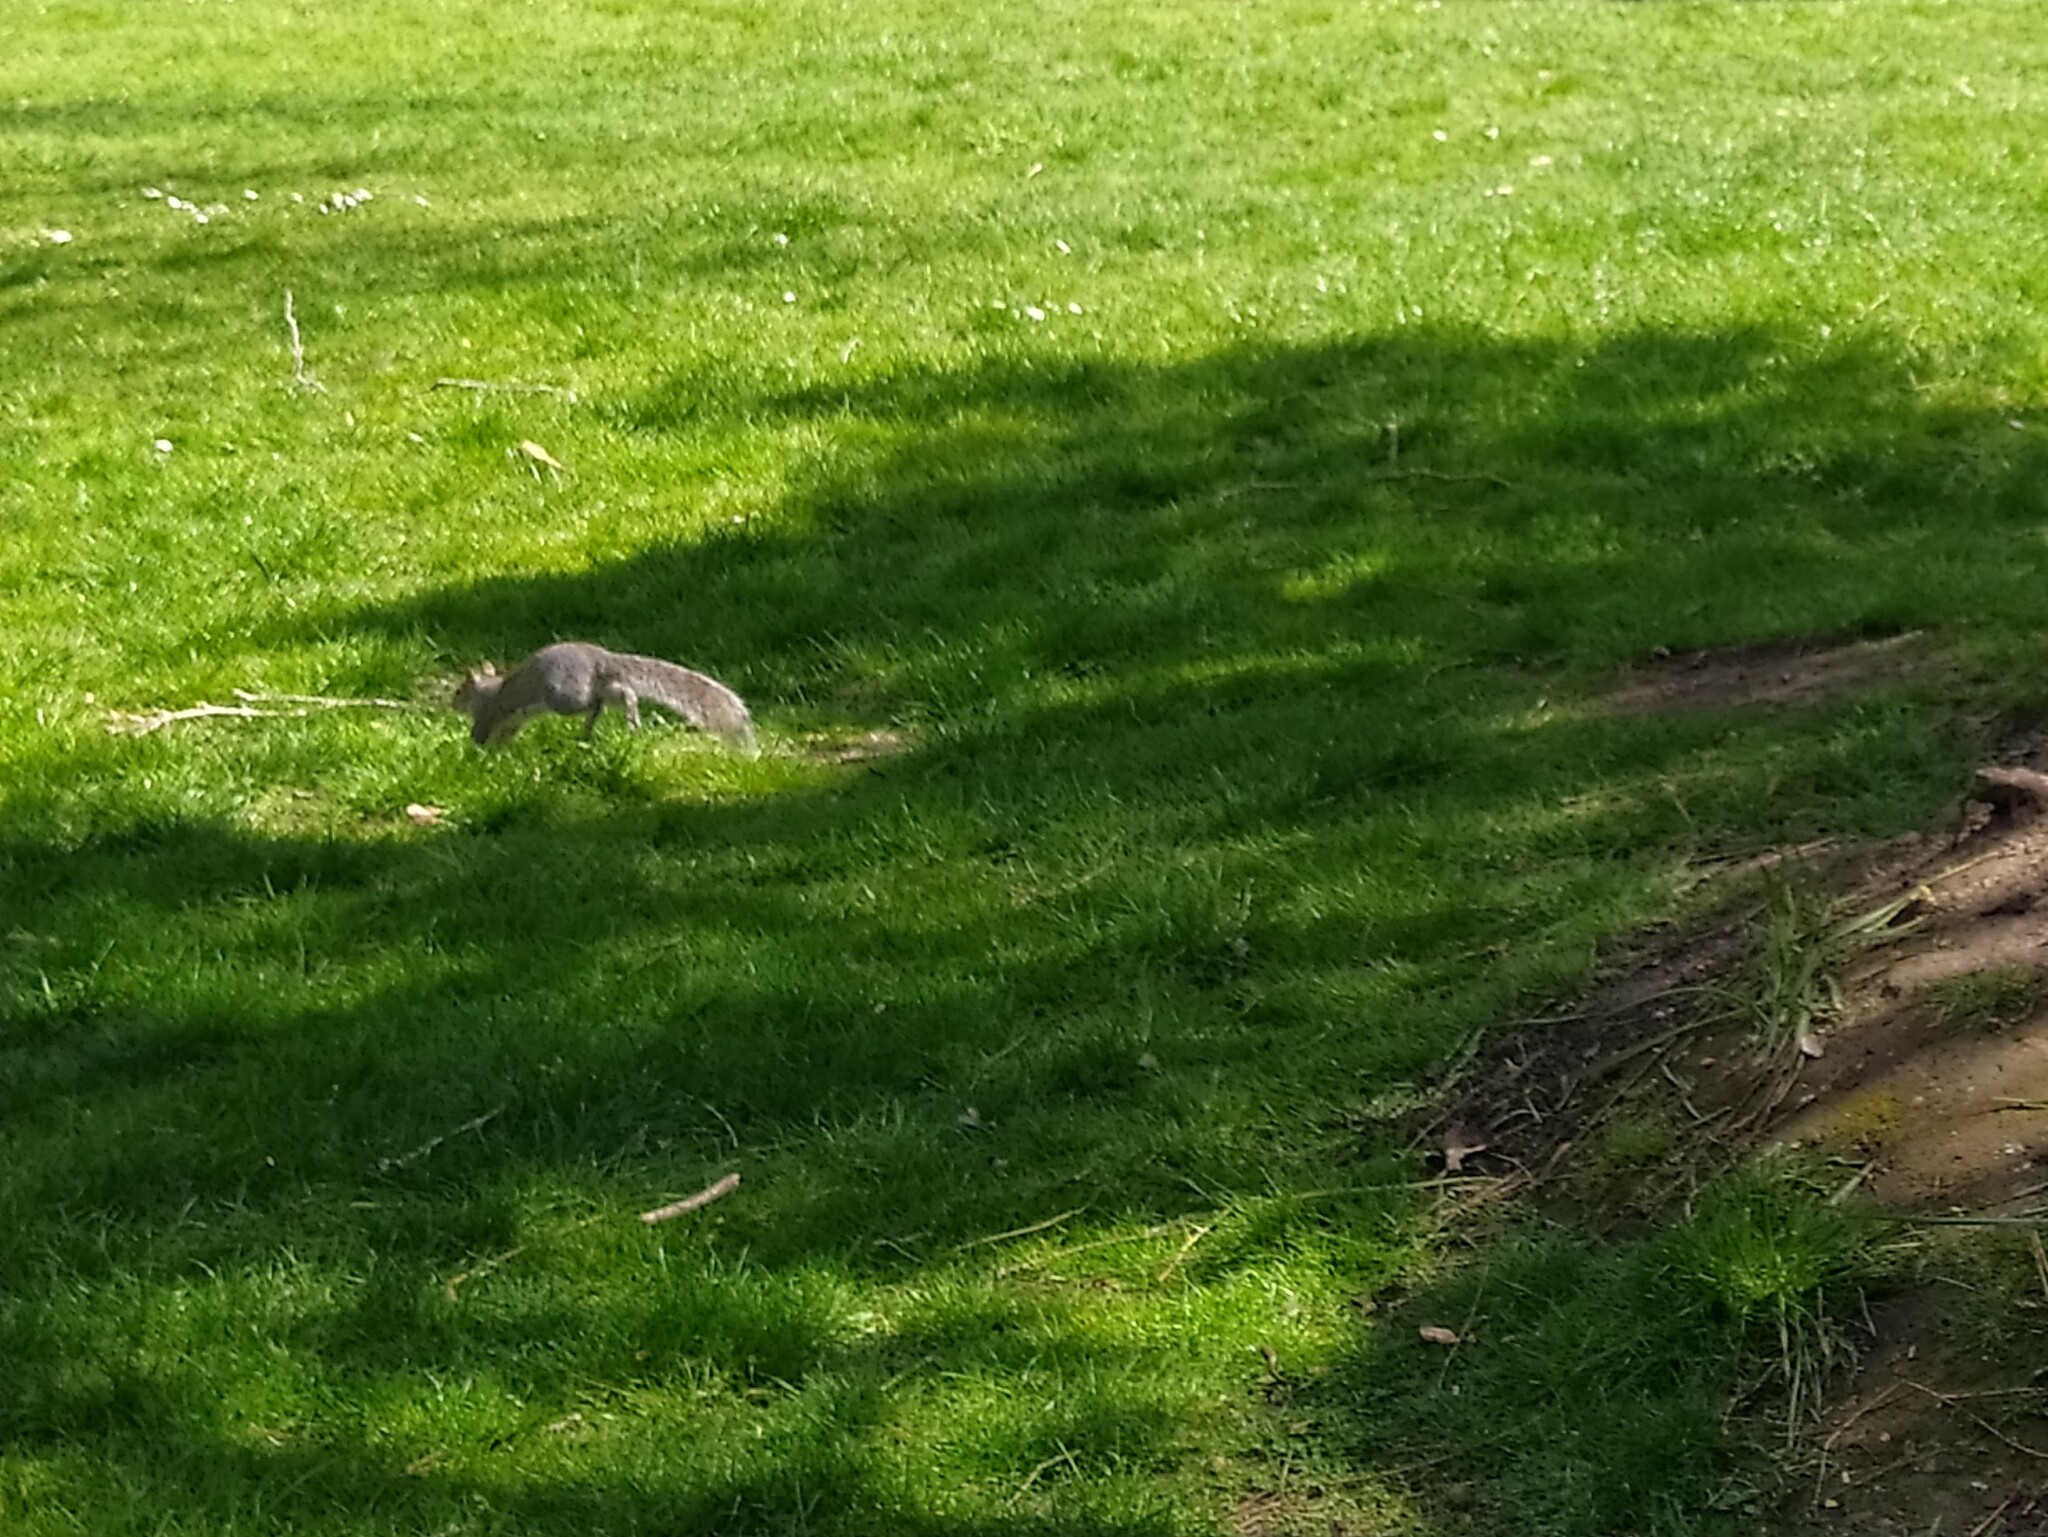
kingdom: Animalia
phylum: Chordata
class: Mammalia
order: Rodentia
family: Sciuridae
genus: Sciurus
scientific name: Sciurus carolinensis
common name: Eastern gray squirrel
